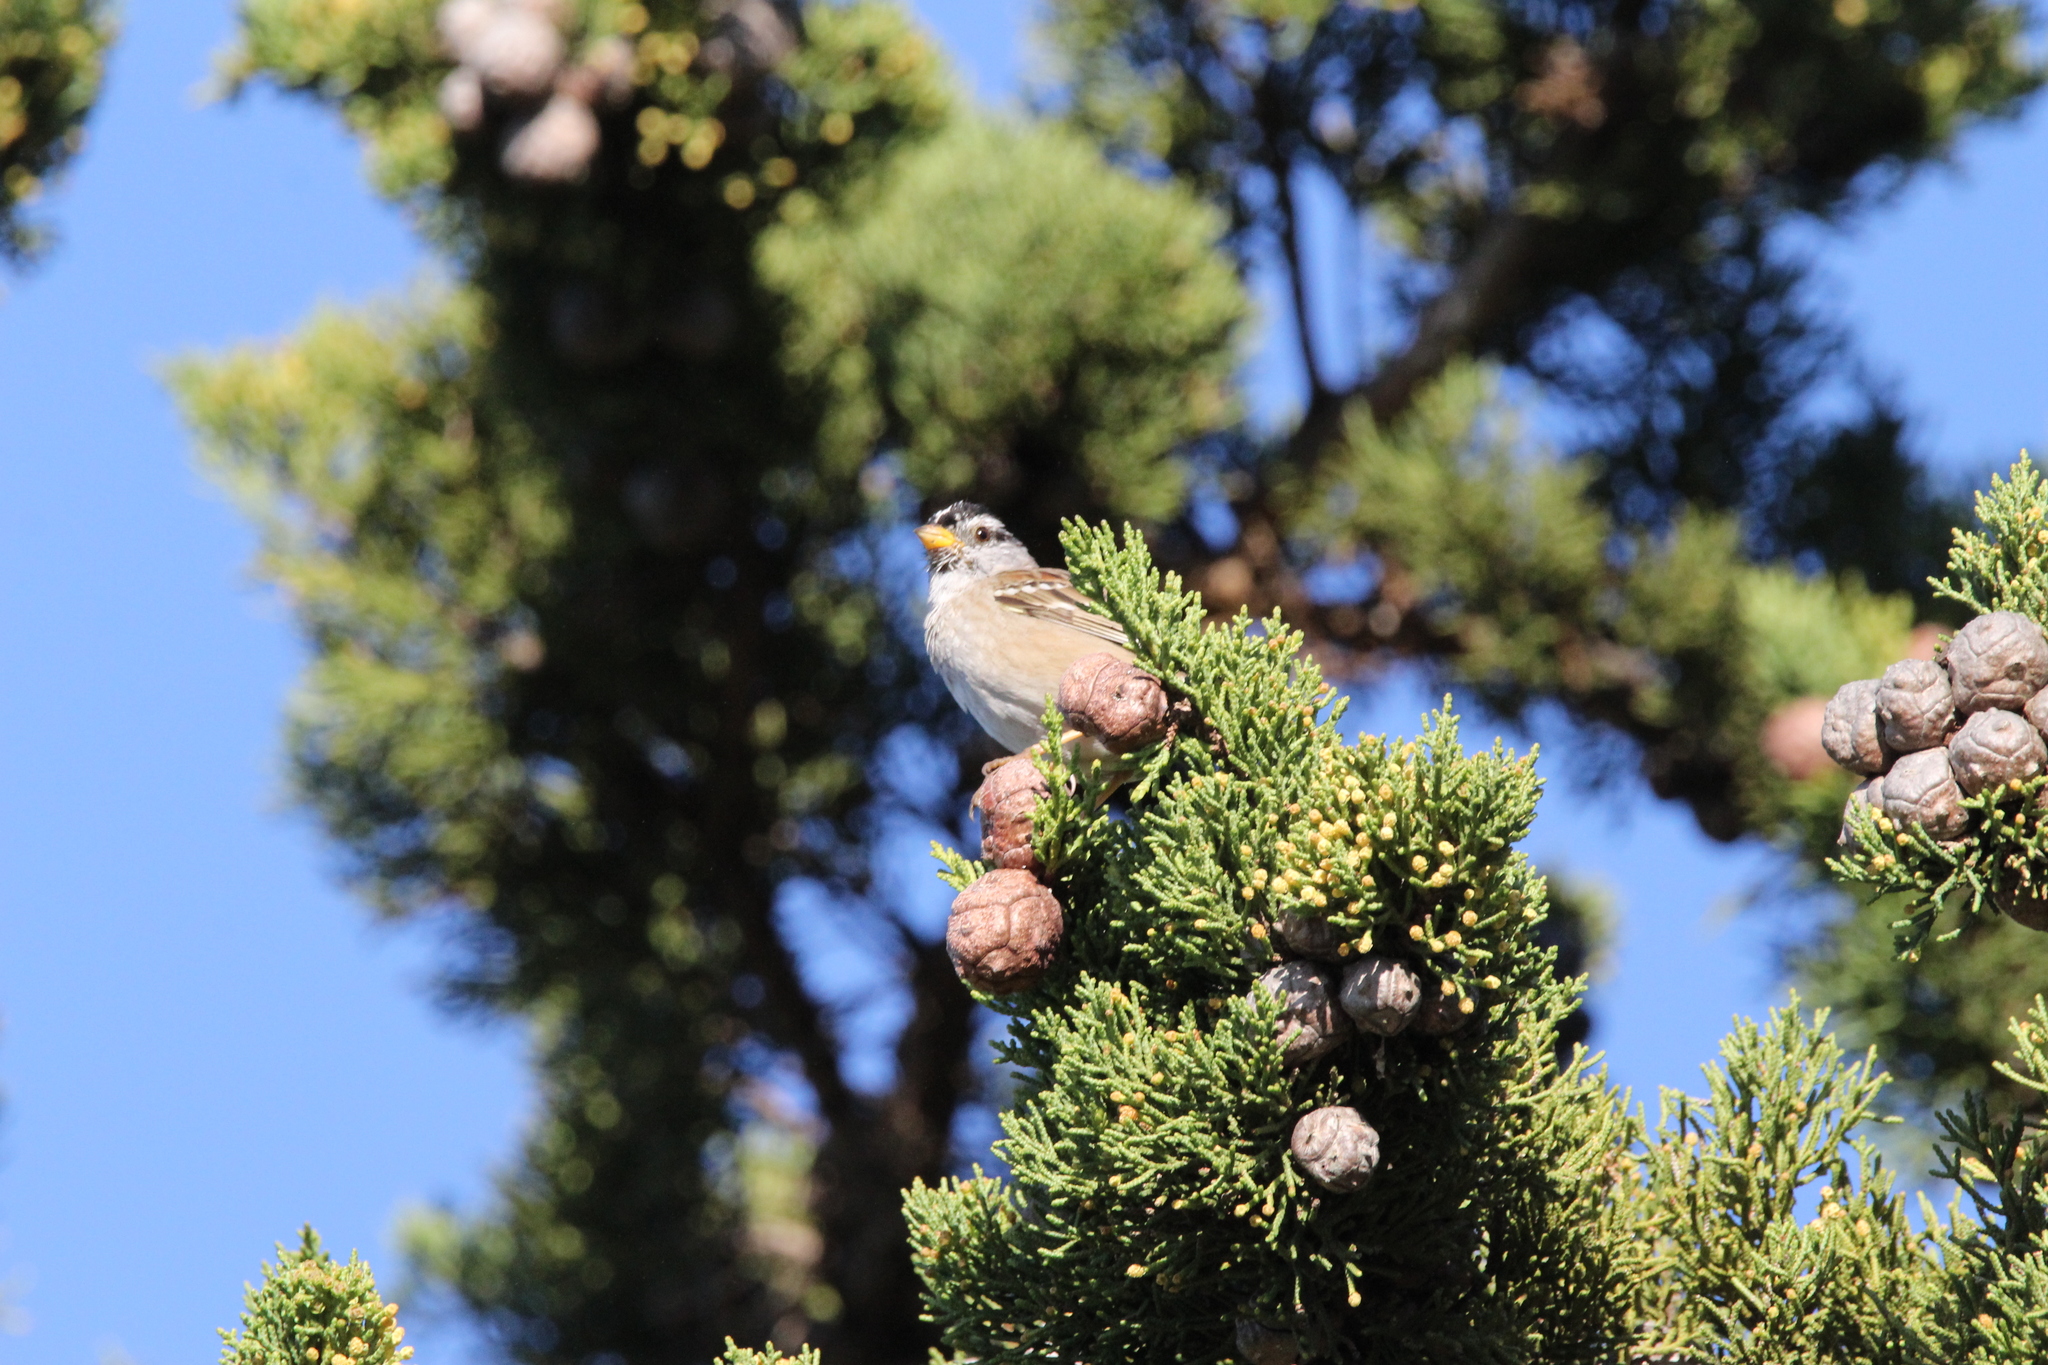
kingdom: Animalia
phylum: Chordata
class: Aves
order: Passeriformes
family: Passerellidae
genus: Zonotrichia
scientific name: Zonotrichia leucophrys
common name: White-crowned sparrow
